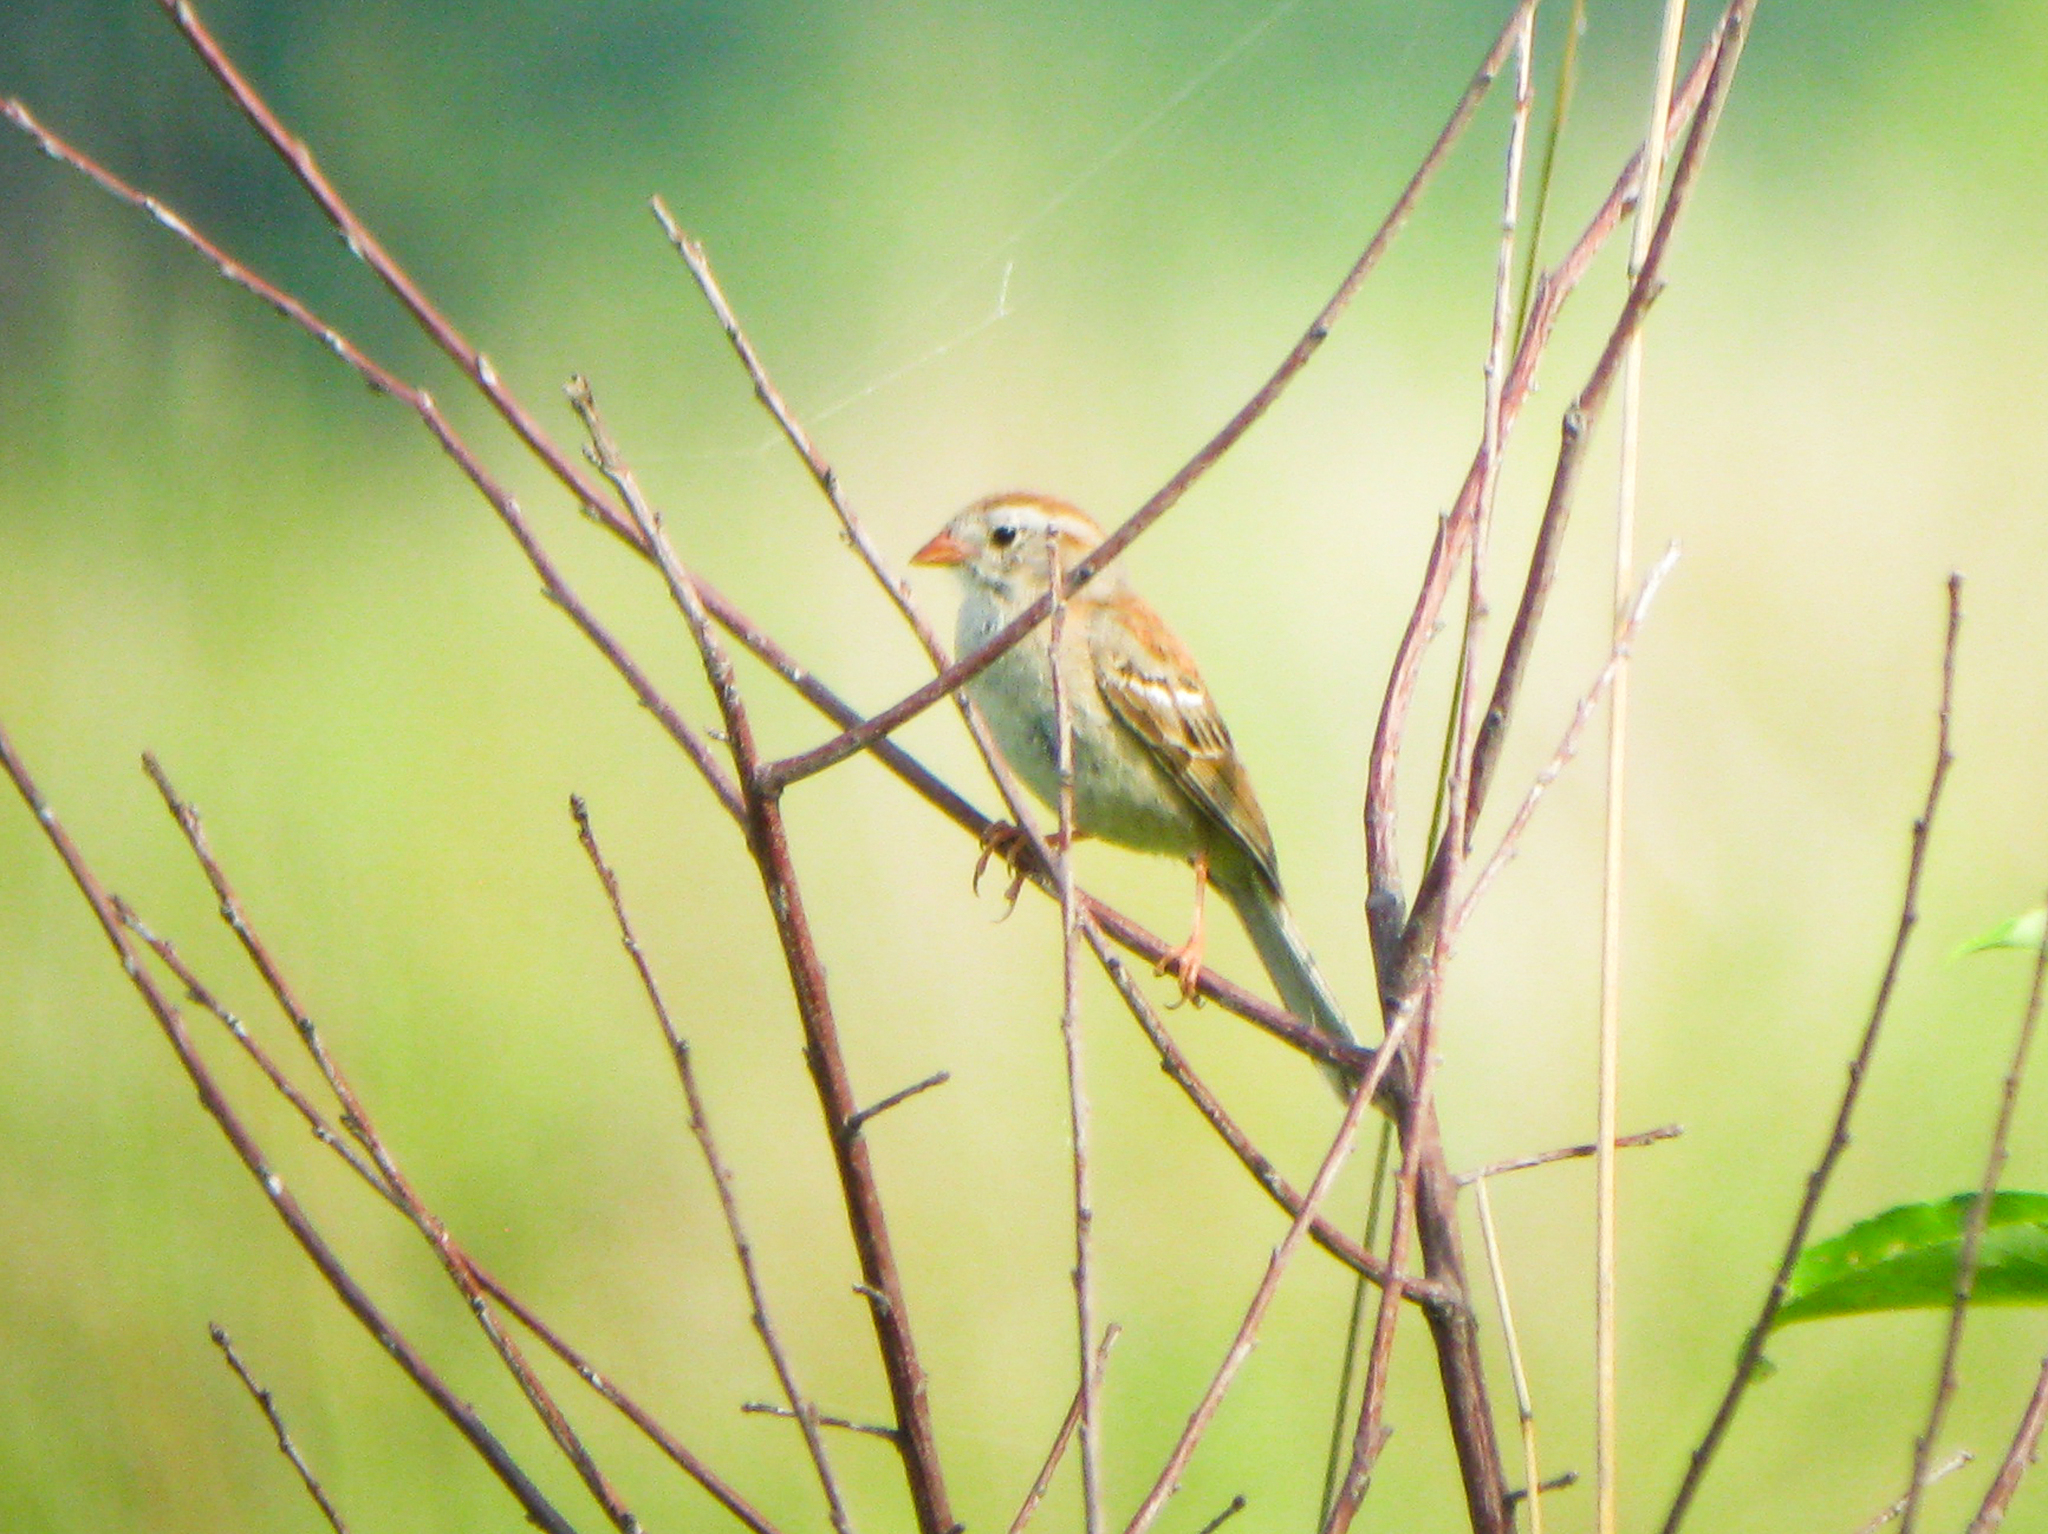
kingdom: Animalia
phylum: Chordata
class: Aves
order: Passeriformes
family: Passerellidae
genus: Spizella
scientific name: Spizella pusilla
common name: Field sparrow
